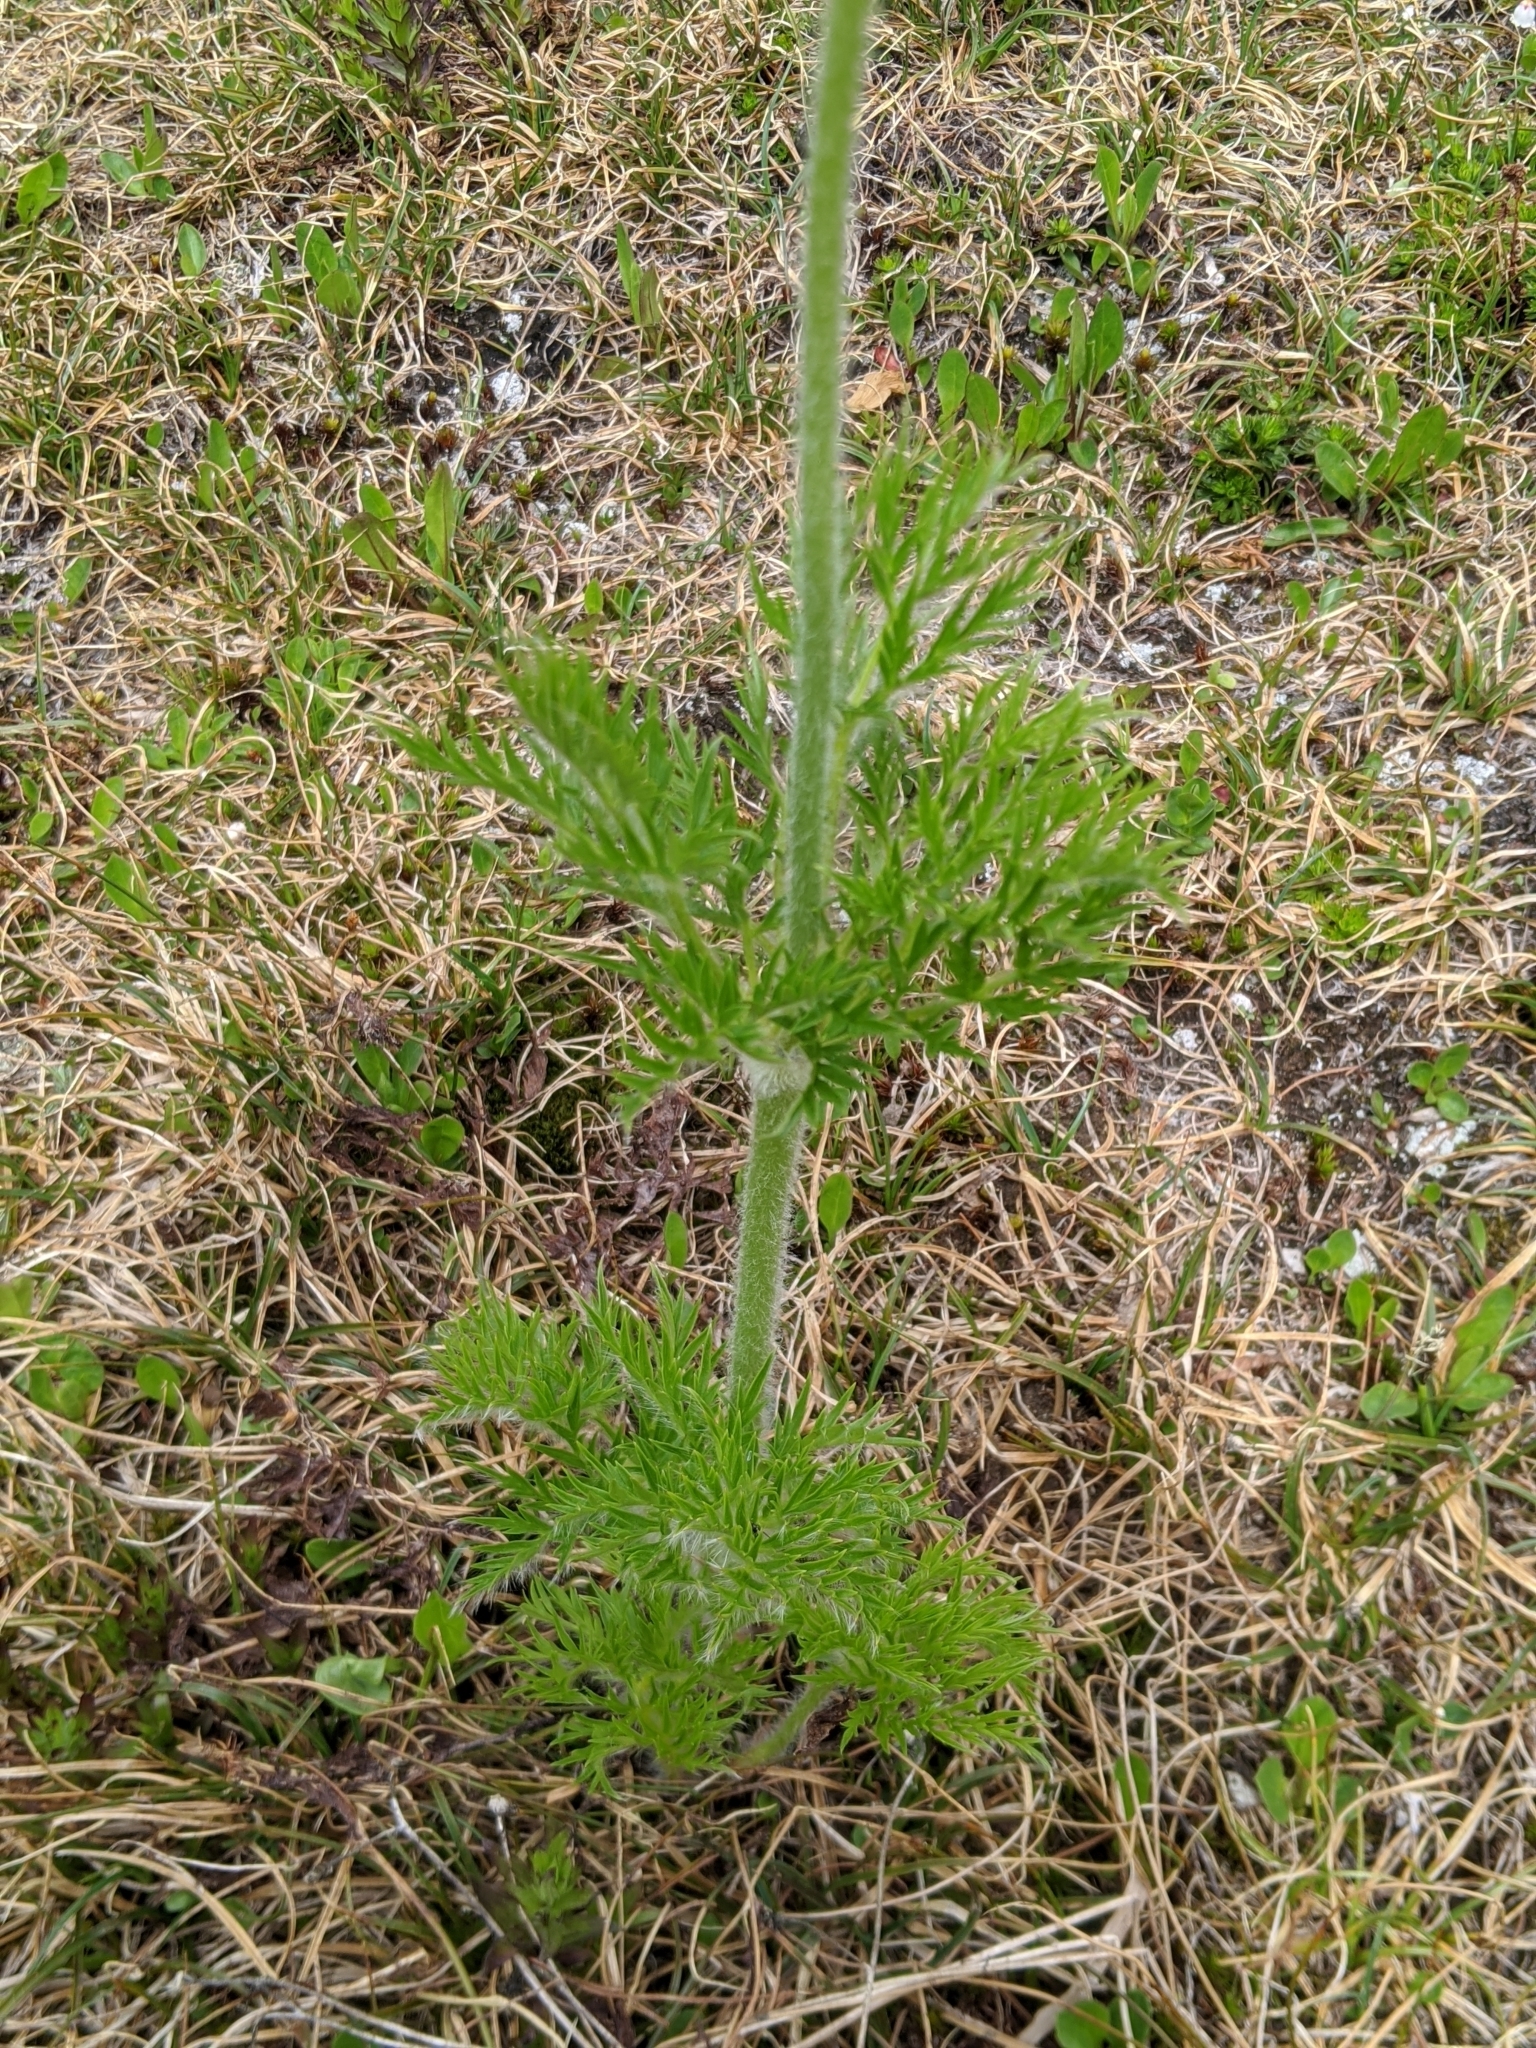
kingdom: Plantae
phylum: Tracheophyta
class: Magnoliopsida
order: Ranunculales
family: Ranunculaceae
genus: Pulsatilla
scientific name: Pulsatilla occidentalis
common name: Mountain pasqueflower
